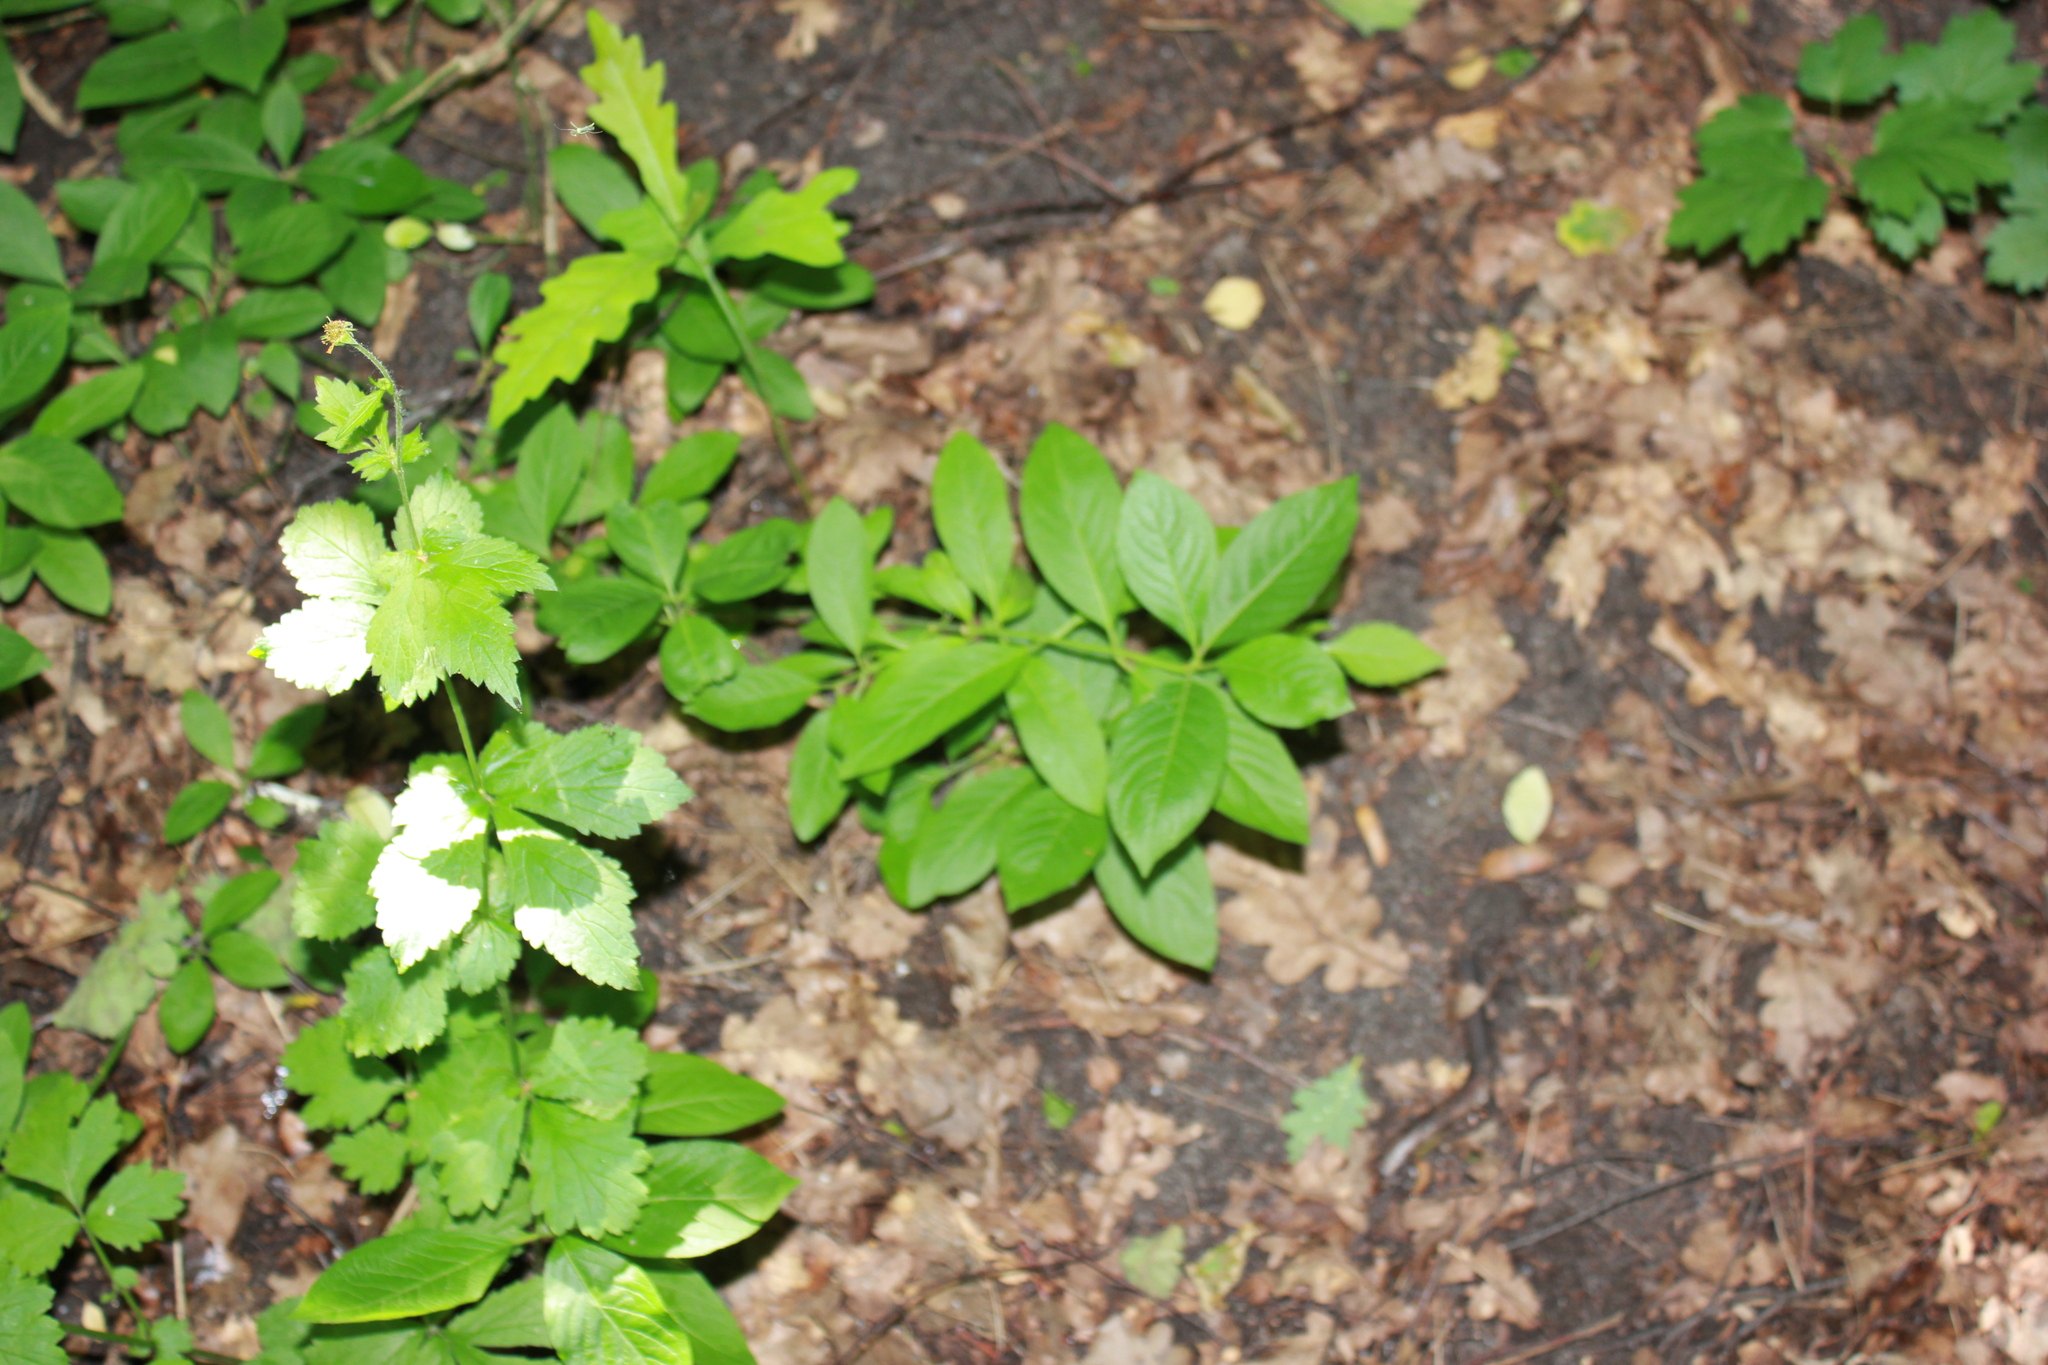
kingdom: Plantae
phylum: Tracheophyta
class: Magnoliopsida
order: Celastrales
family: Celastraceae
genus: Euonymus
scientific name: Euonymus europaeus
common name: Spindle
